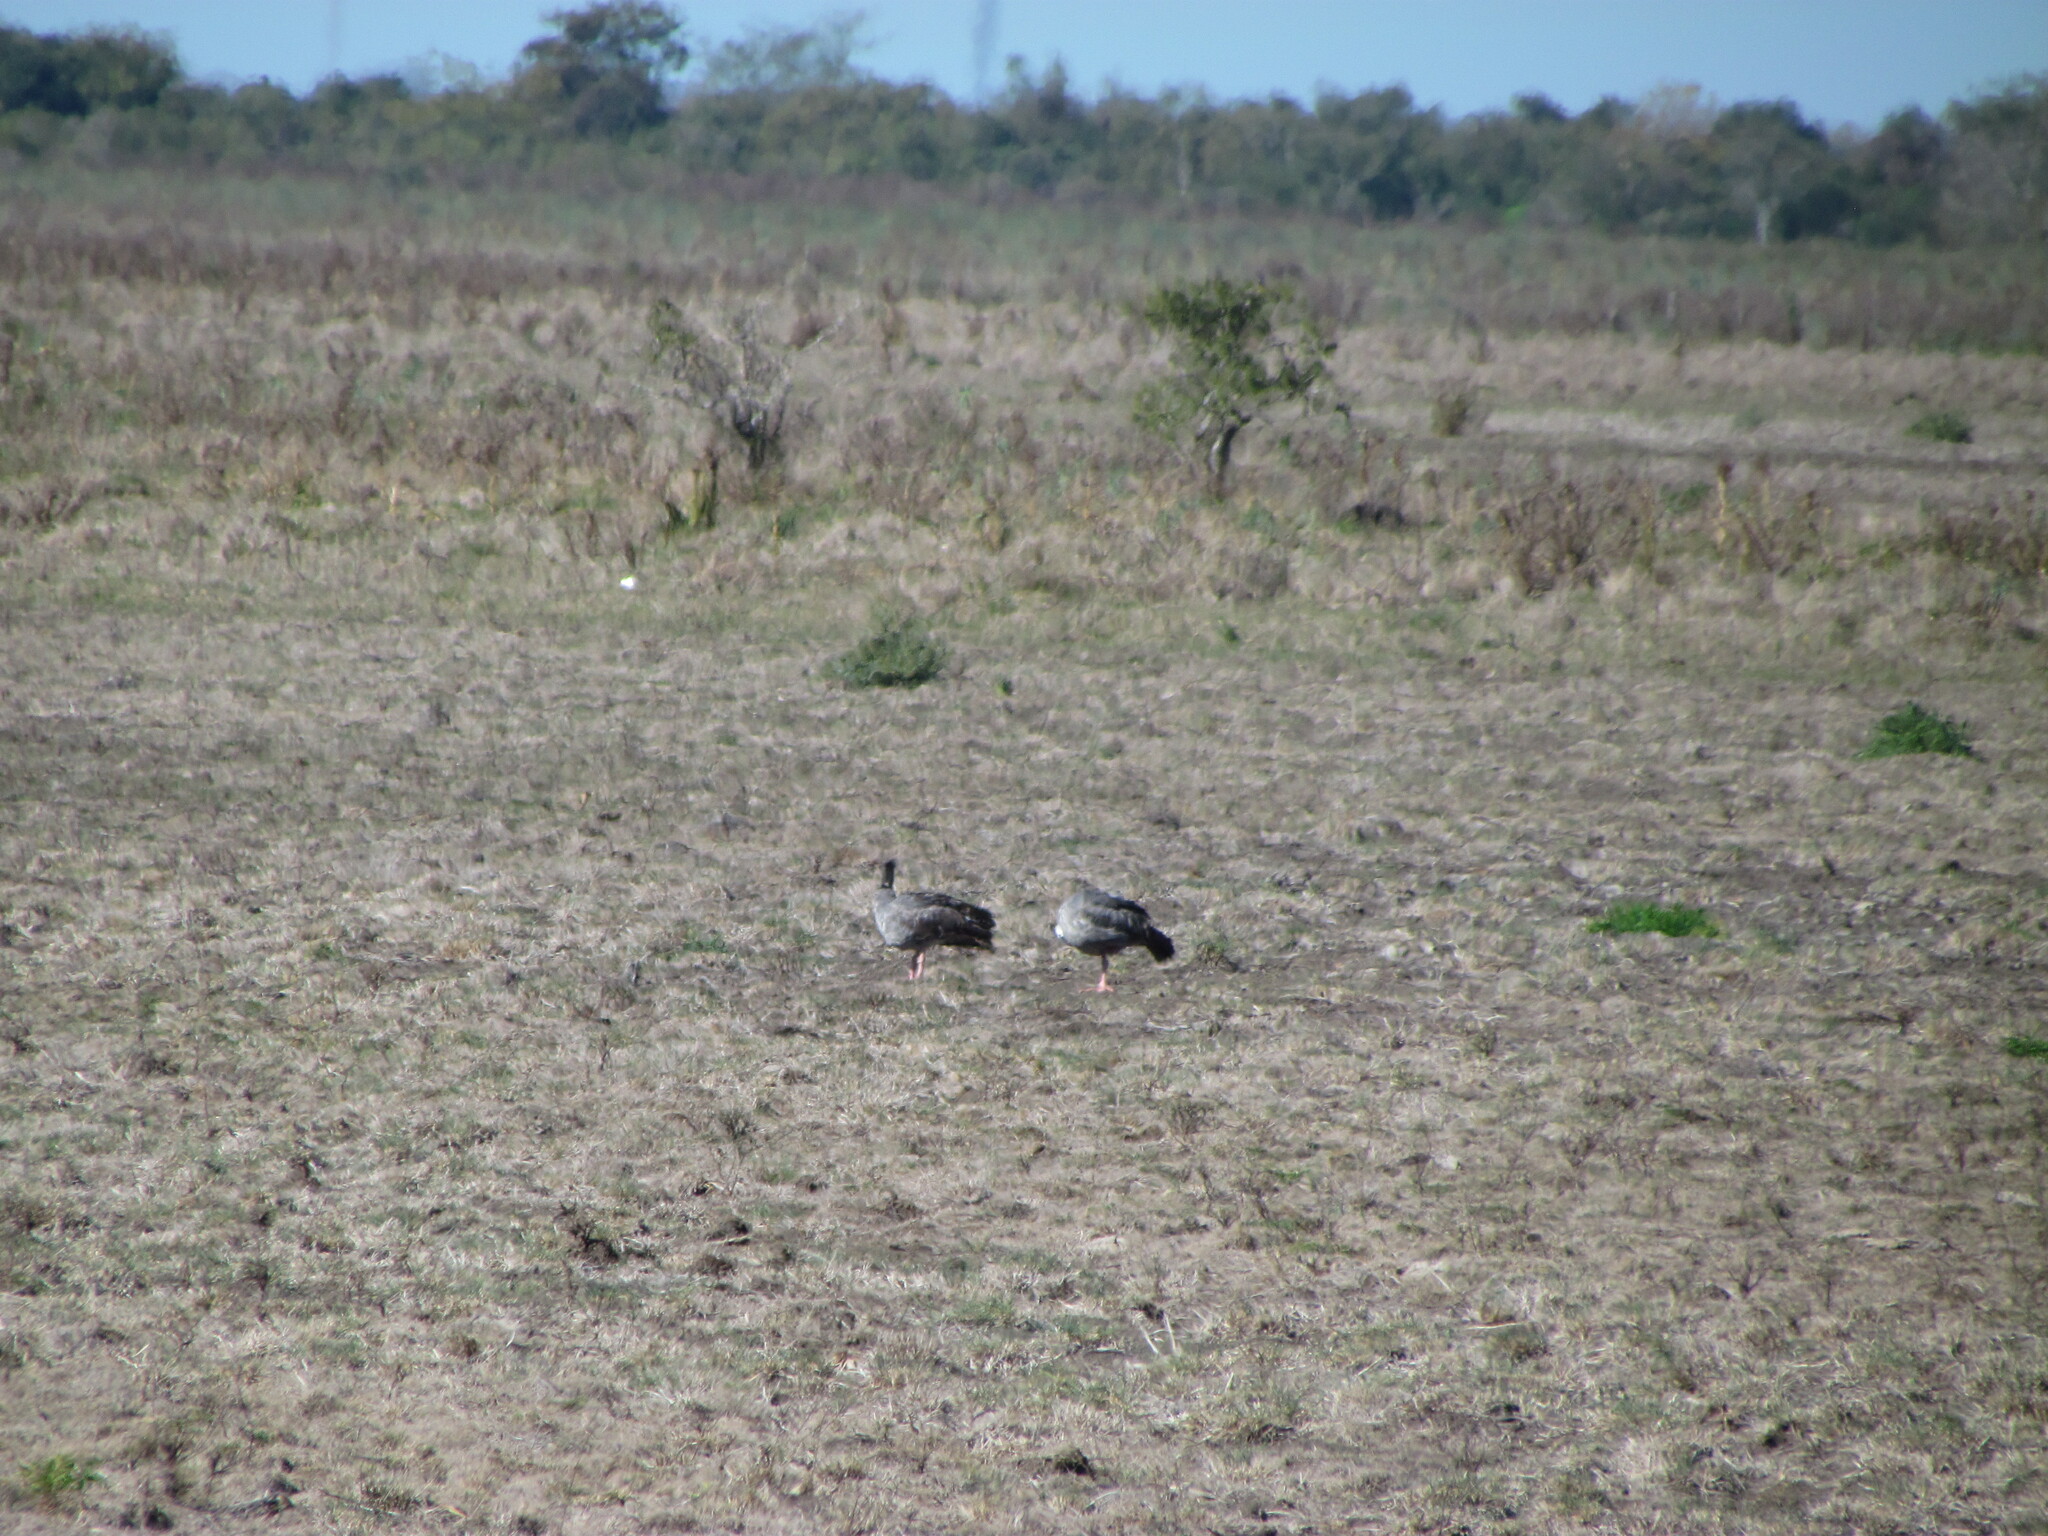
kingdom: Animalia
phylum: Chordata
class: Aves
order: Anseriformes
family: Anhimidae
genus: Chauna
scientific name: Chauna torquata
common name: Southern screamer
